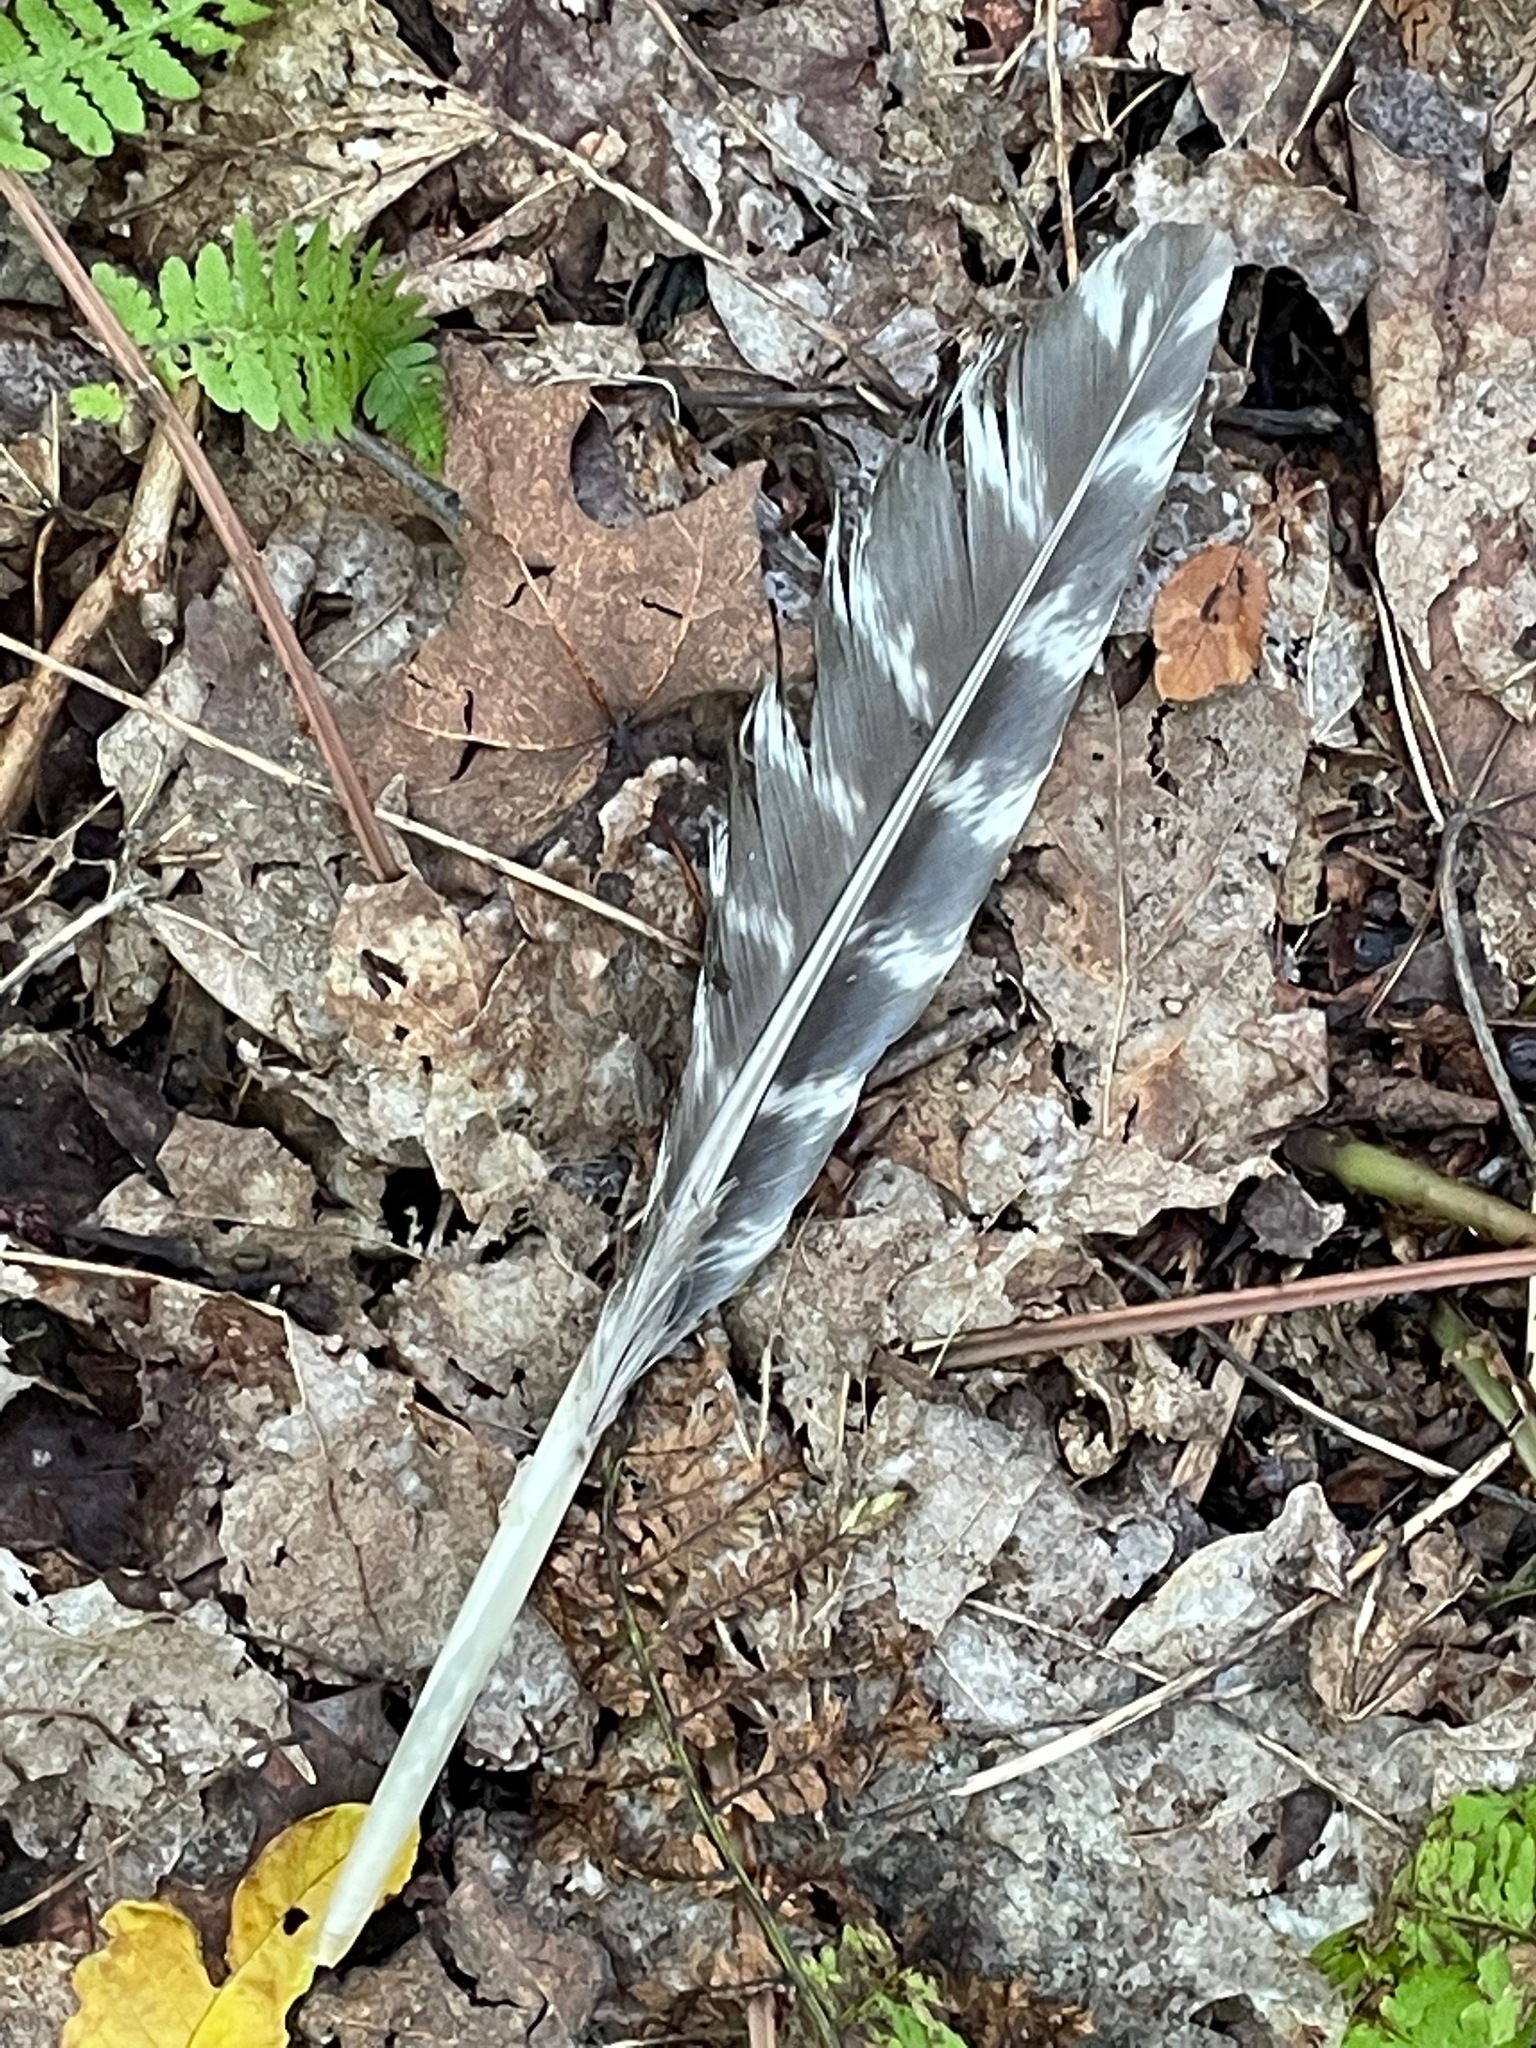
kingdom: Animalia
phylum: Chordata
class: Aves
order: Galliformes
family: Phasianidae
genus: Meleagris
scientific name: Meleagris gallopavo
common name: Wild turkey
